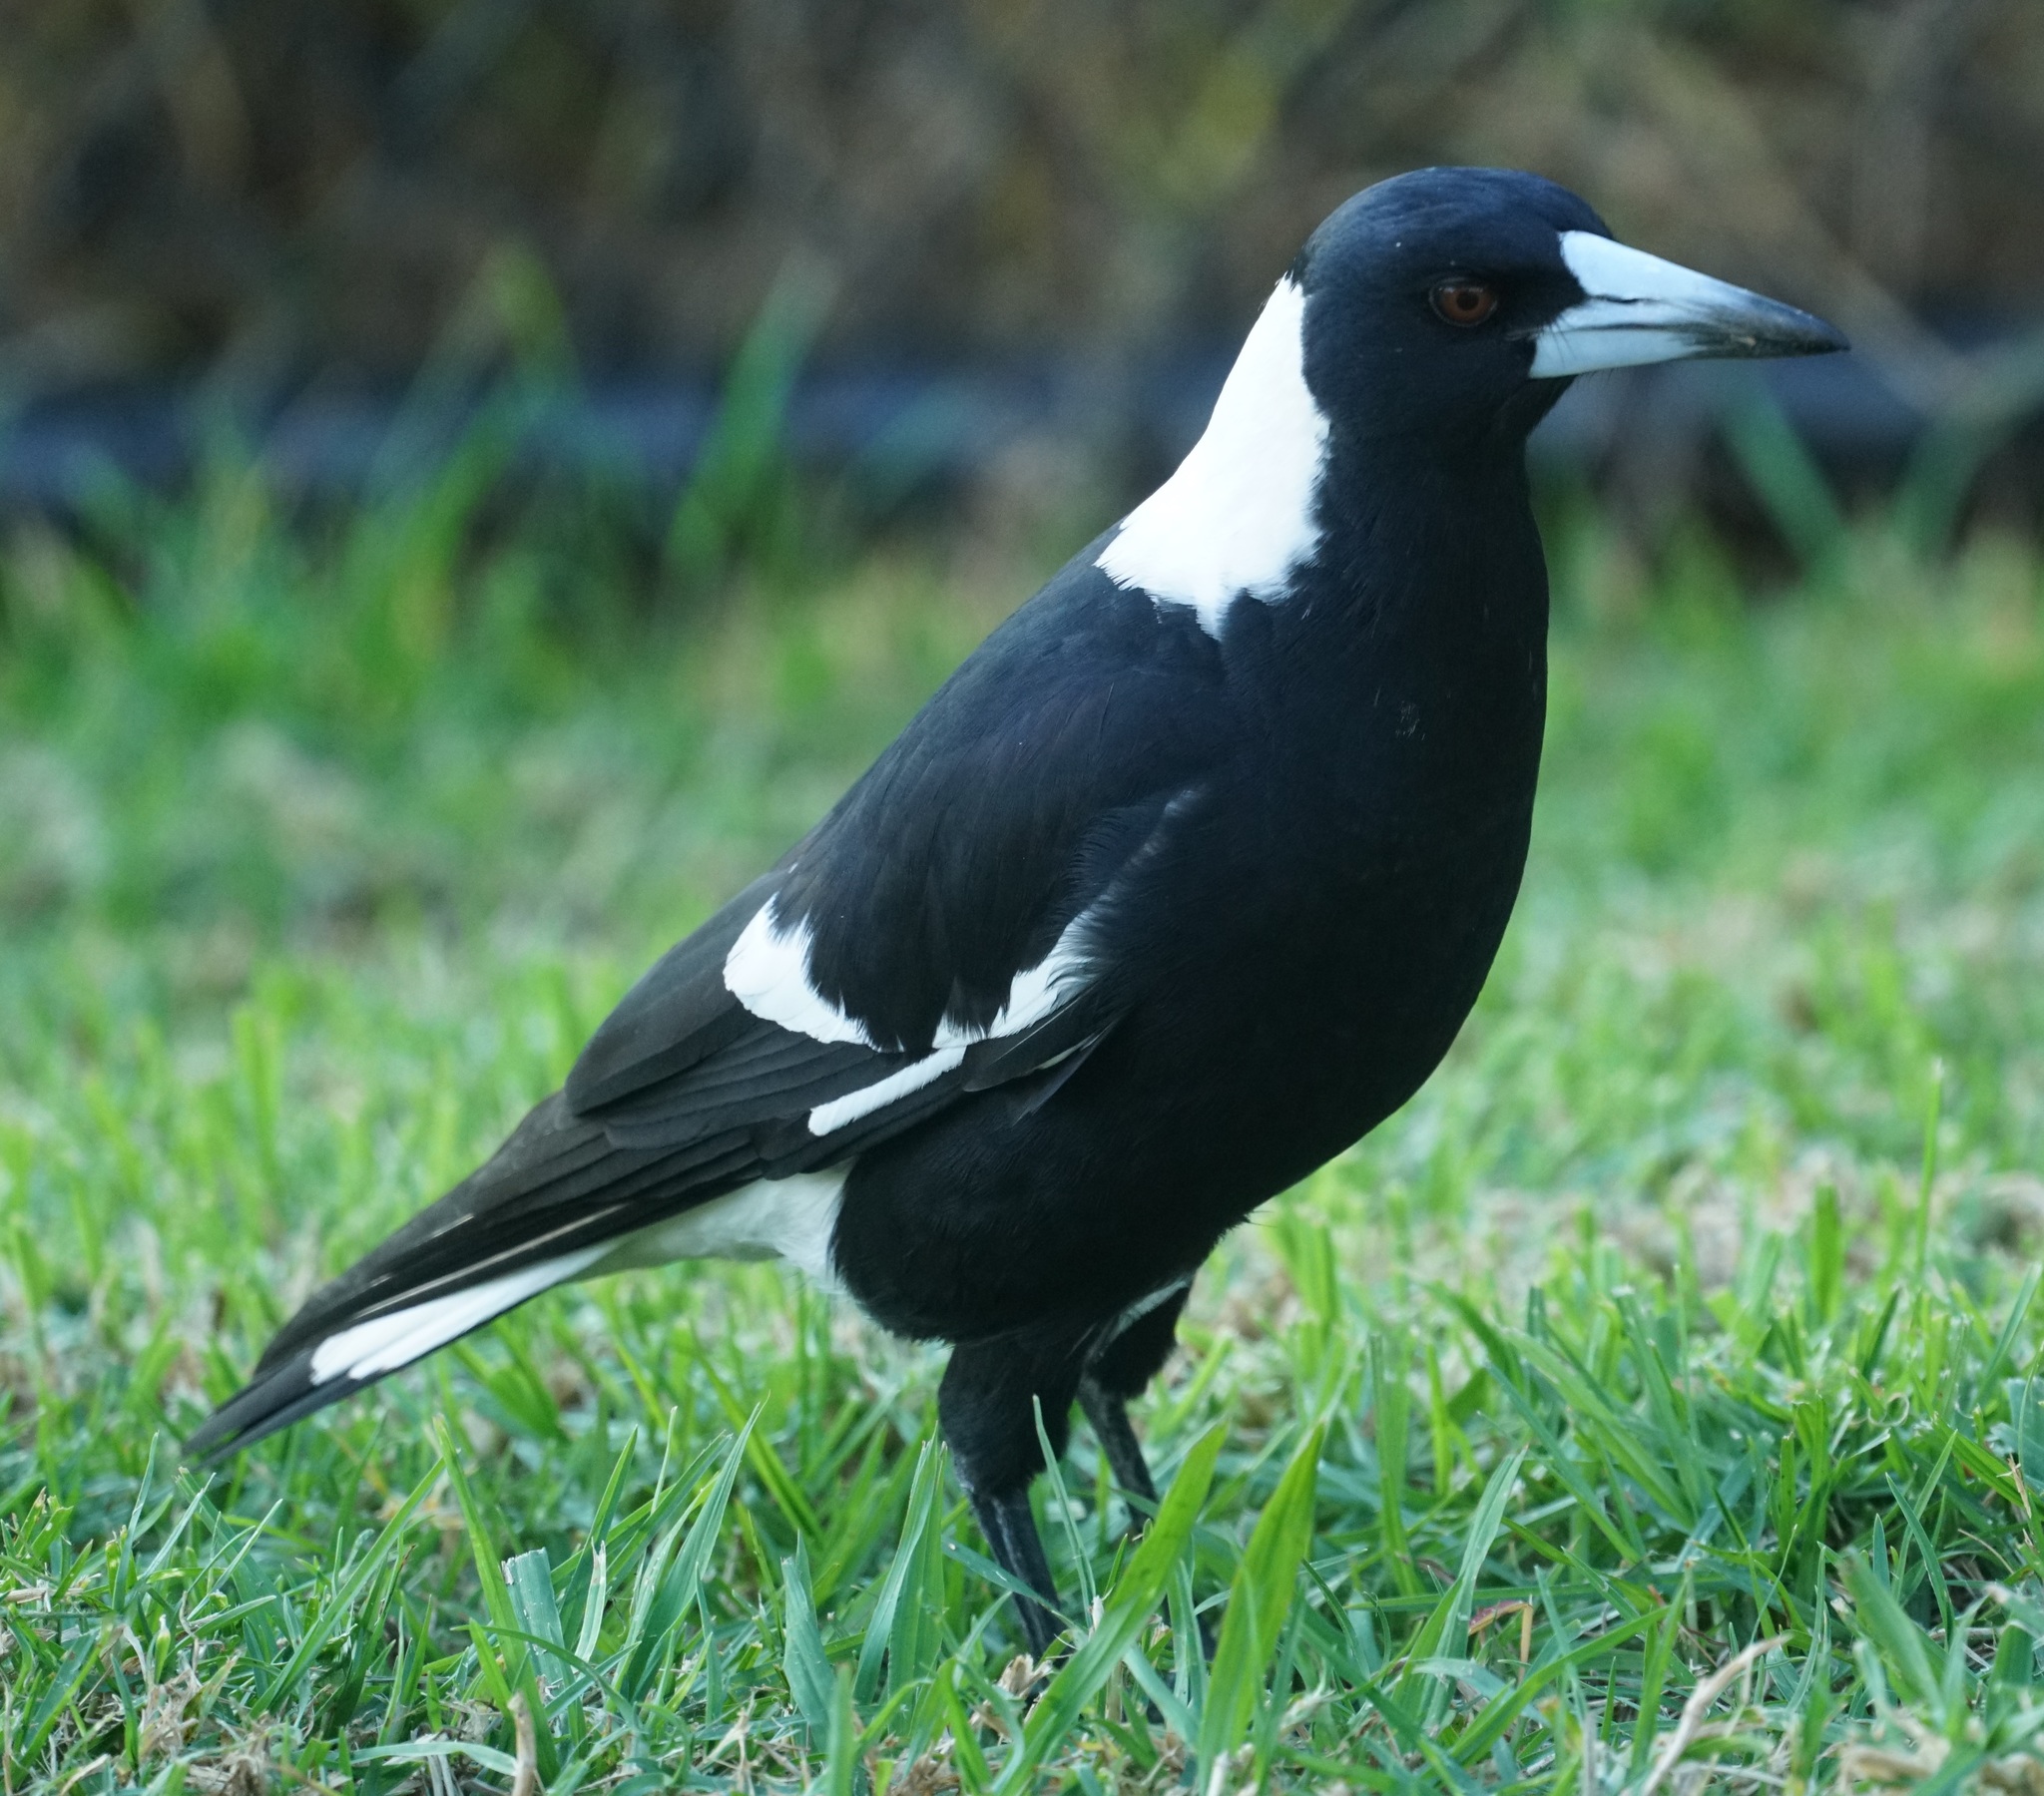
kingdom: Animalia
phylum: Chordata
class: Aves
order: Passeriformes
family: Cracticidae
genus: Gymnorhina
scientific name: Gymnorhina tibicen
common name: Australian magpie
